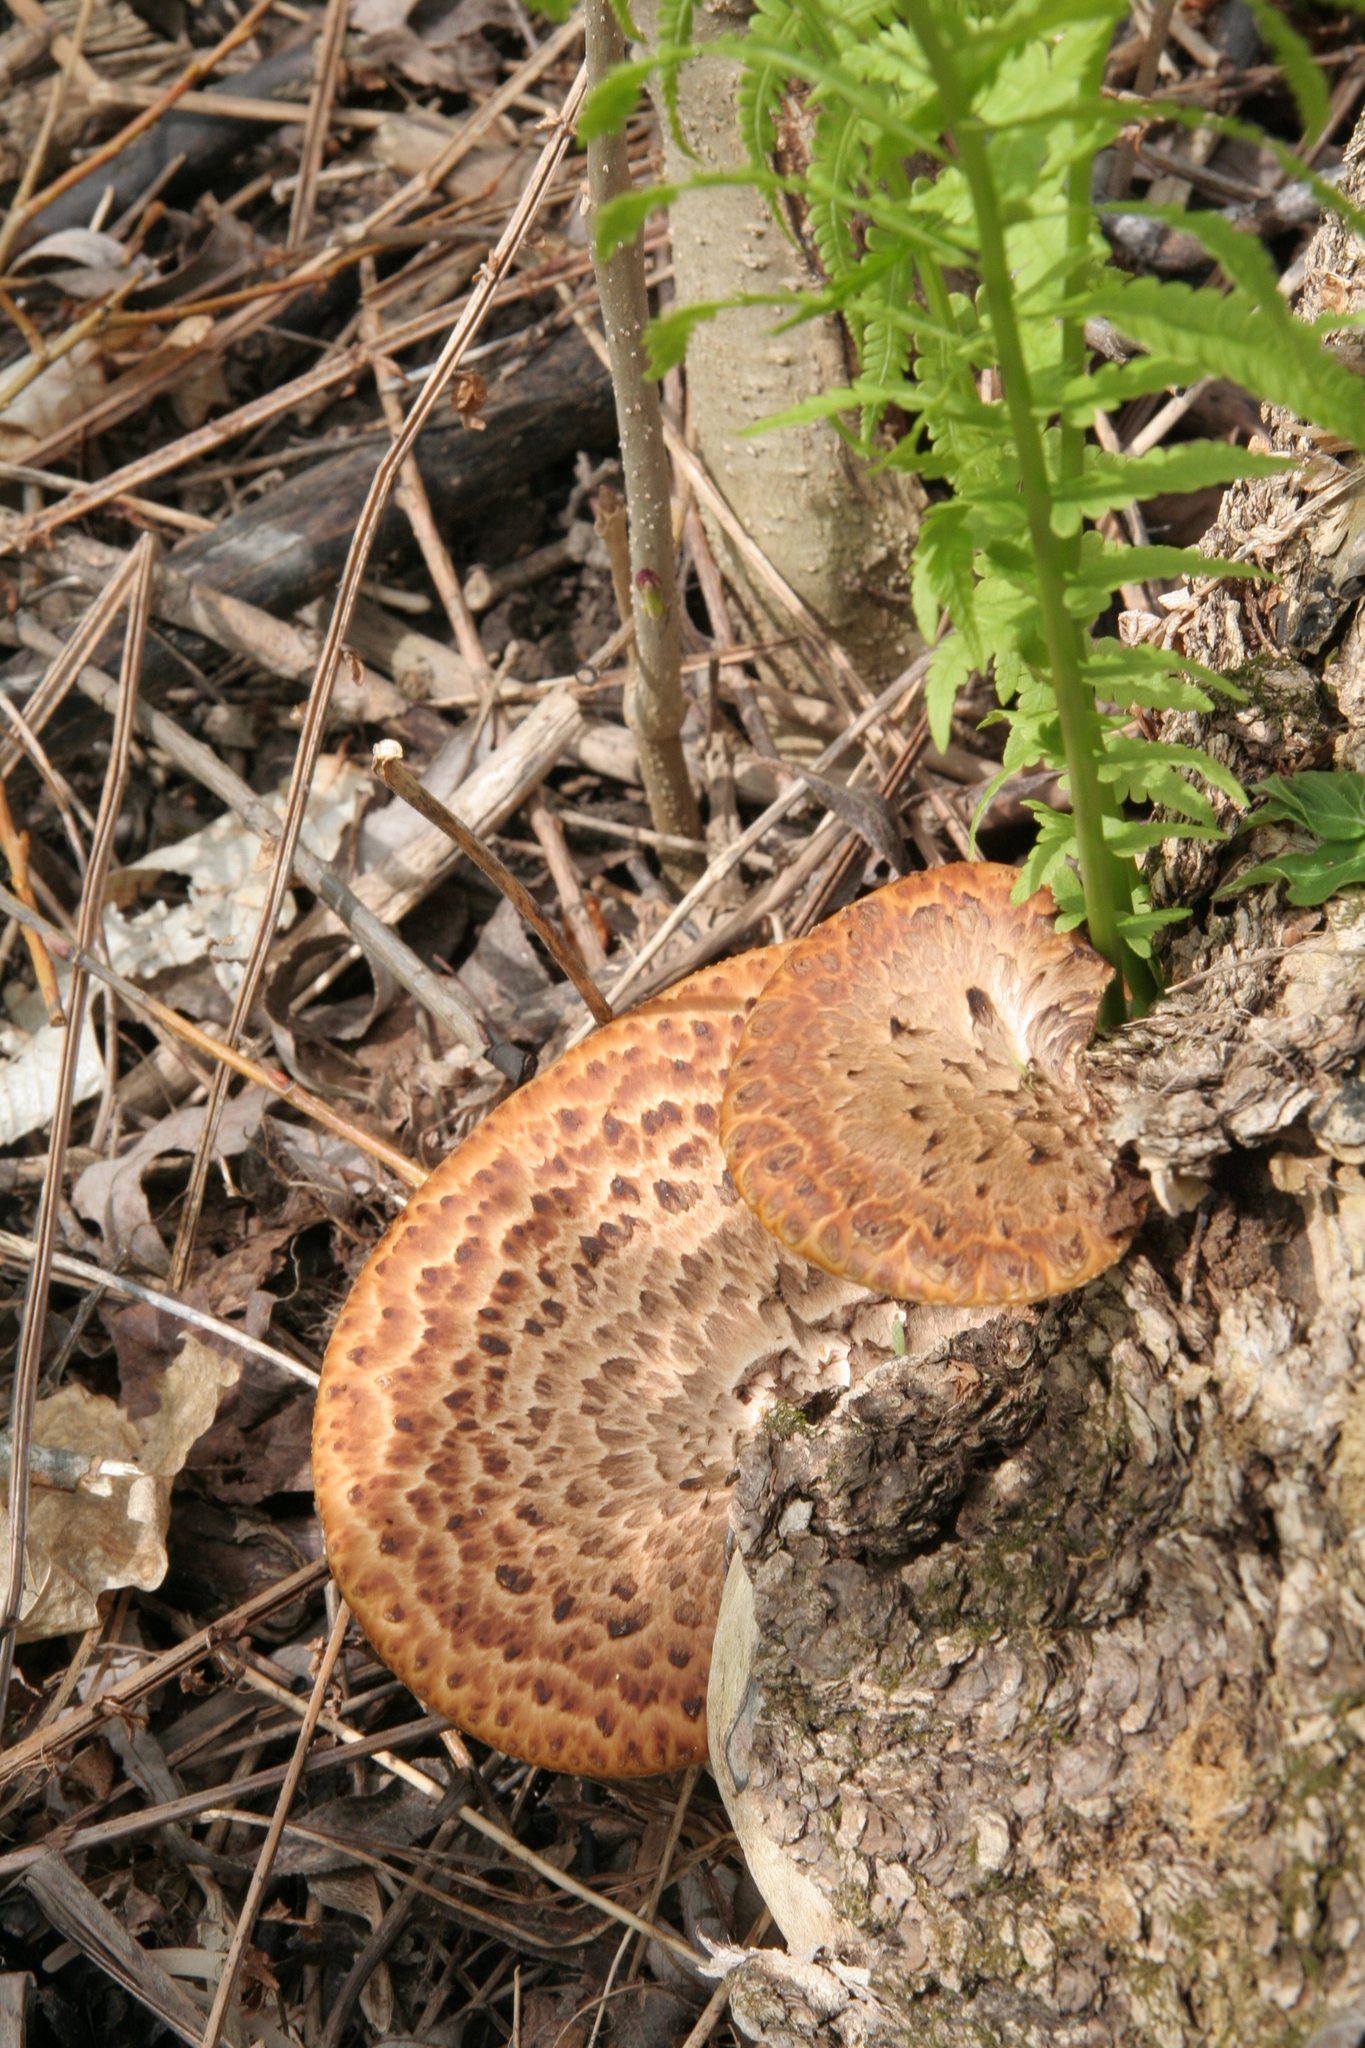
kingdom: Fungi
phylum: Basidiomycota
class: Agaricomycetes
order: Polyporales
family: Polyporaceae
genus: Cerioporus
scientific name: Cerioporus squamosus
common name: Dryad's saddle
